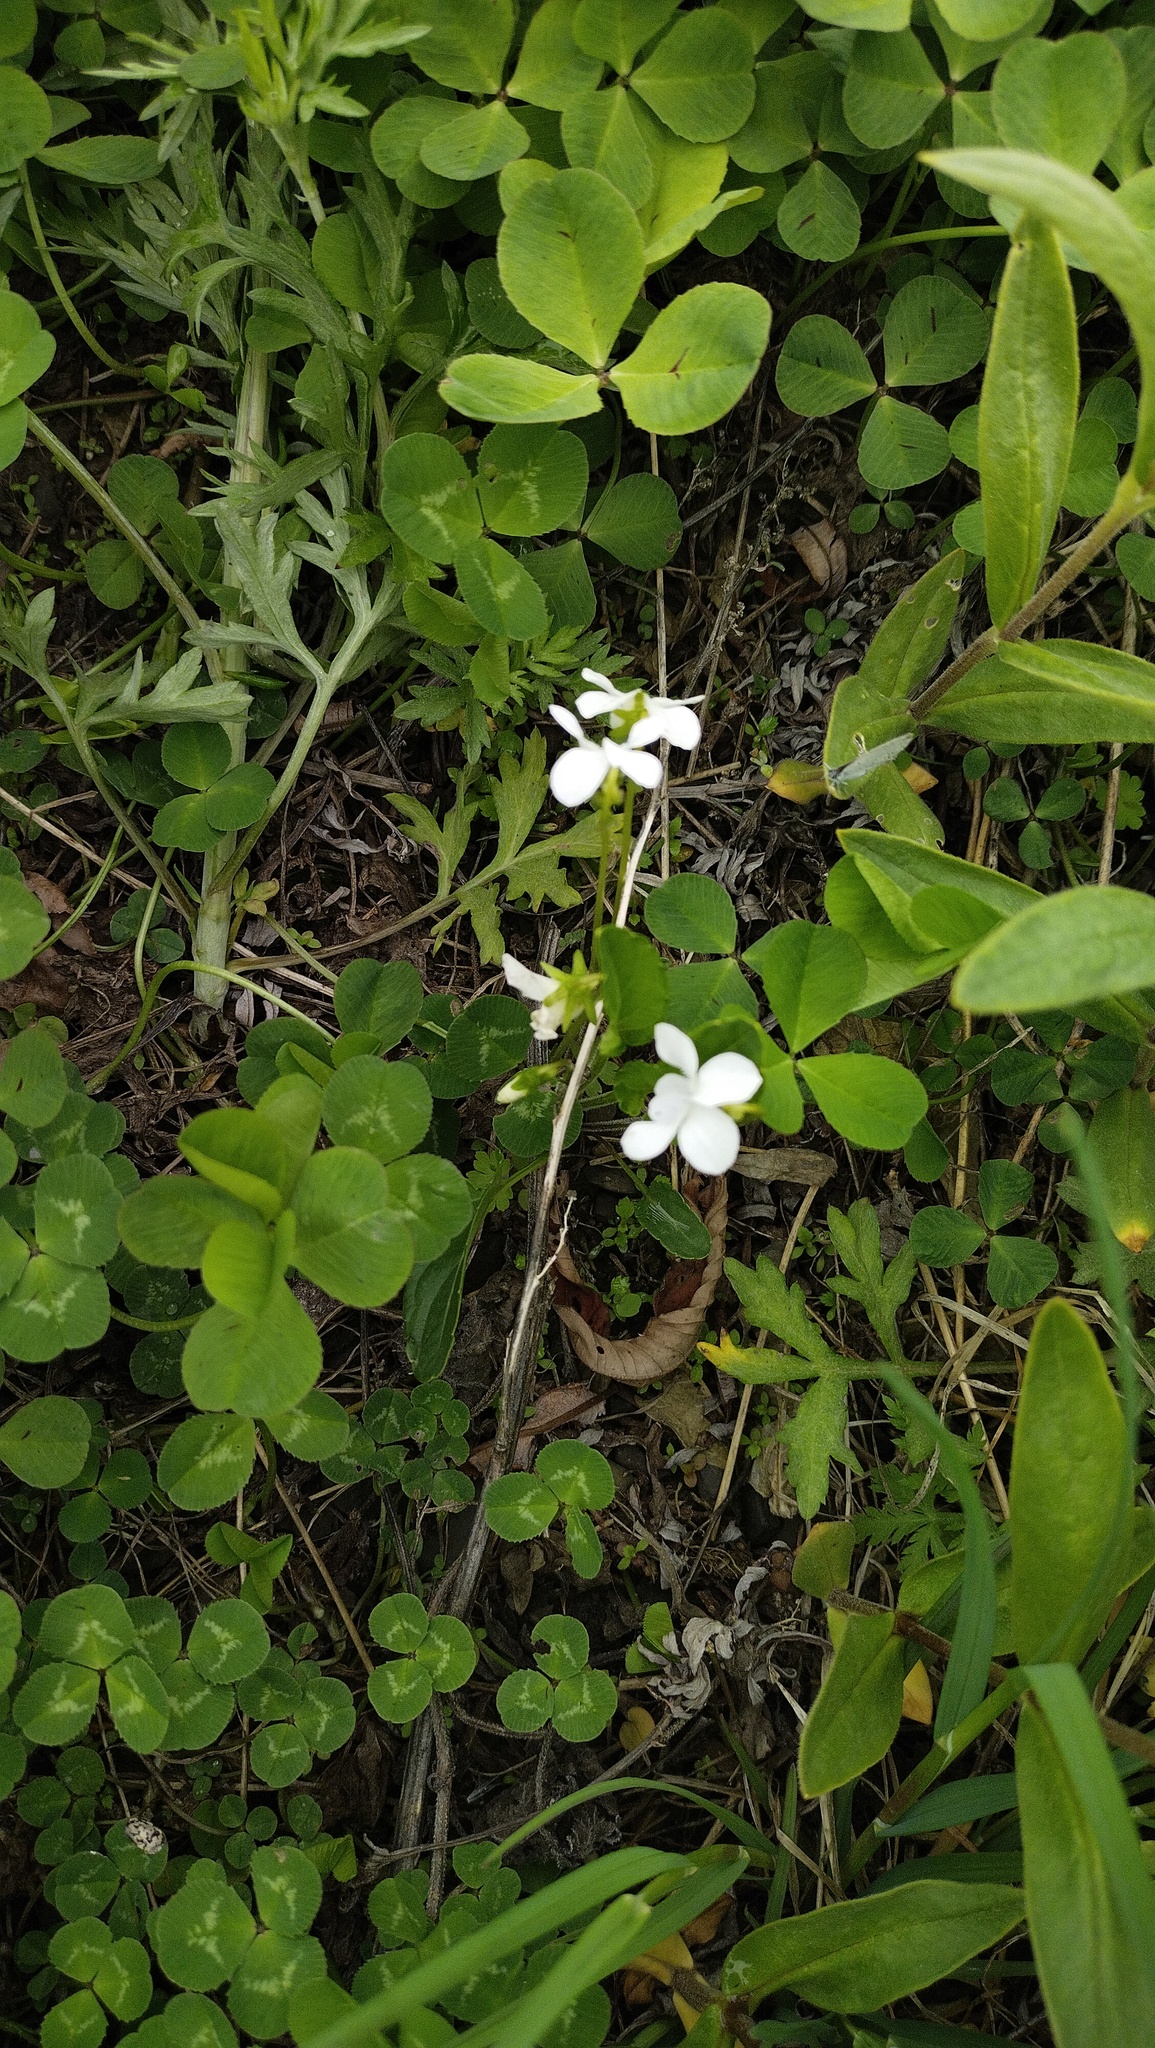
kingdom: Plantae
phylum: Tracheophyta
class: Magnoliopsida
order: Malpighiales
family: Violaceae
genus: Viola
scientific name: Viola patrinii
